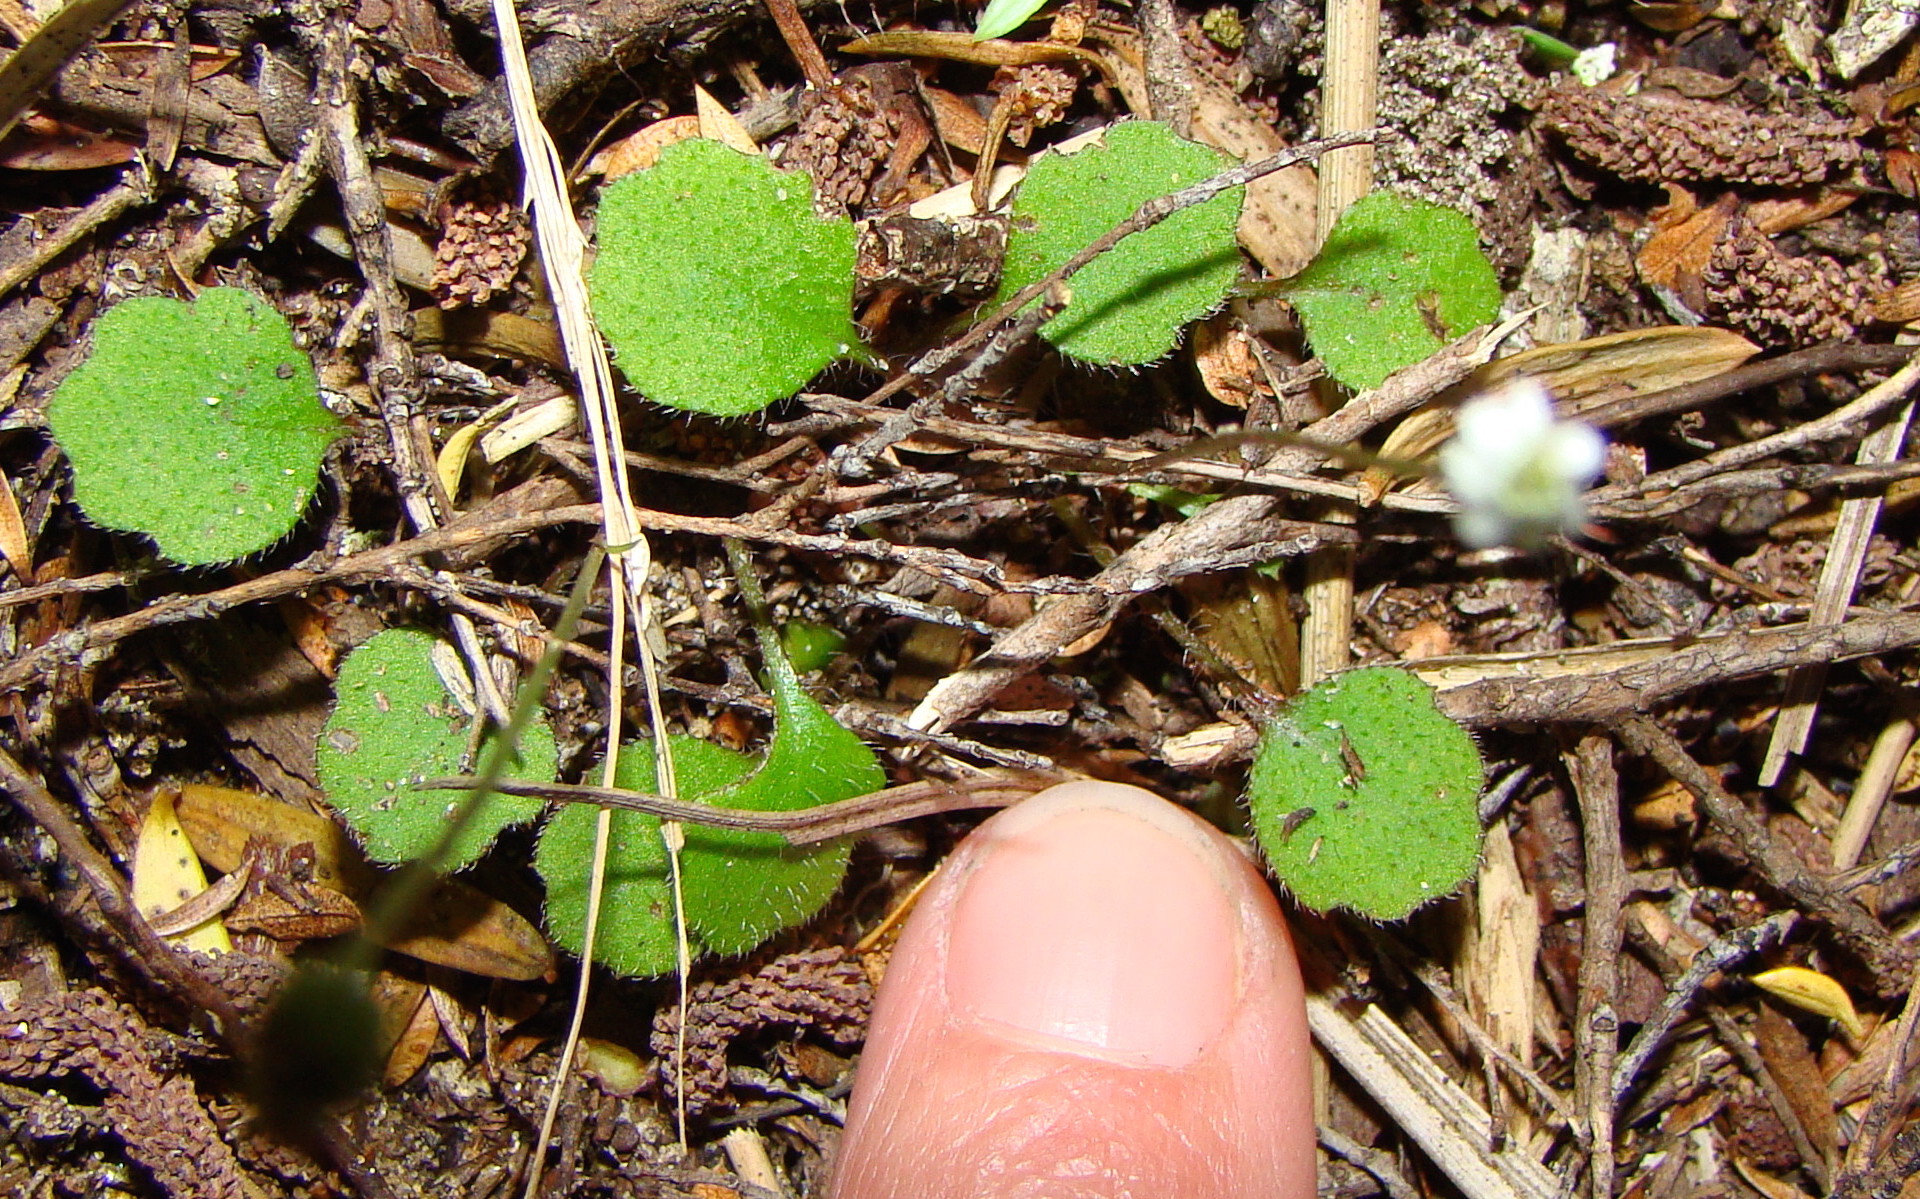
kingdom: Plantae
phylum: Tracheophyta
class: Magnoliopsida
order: Asterales
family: Asteraceae
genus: Lagenophora
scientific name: Lagenophora strangulata
